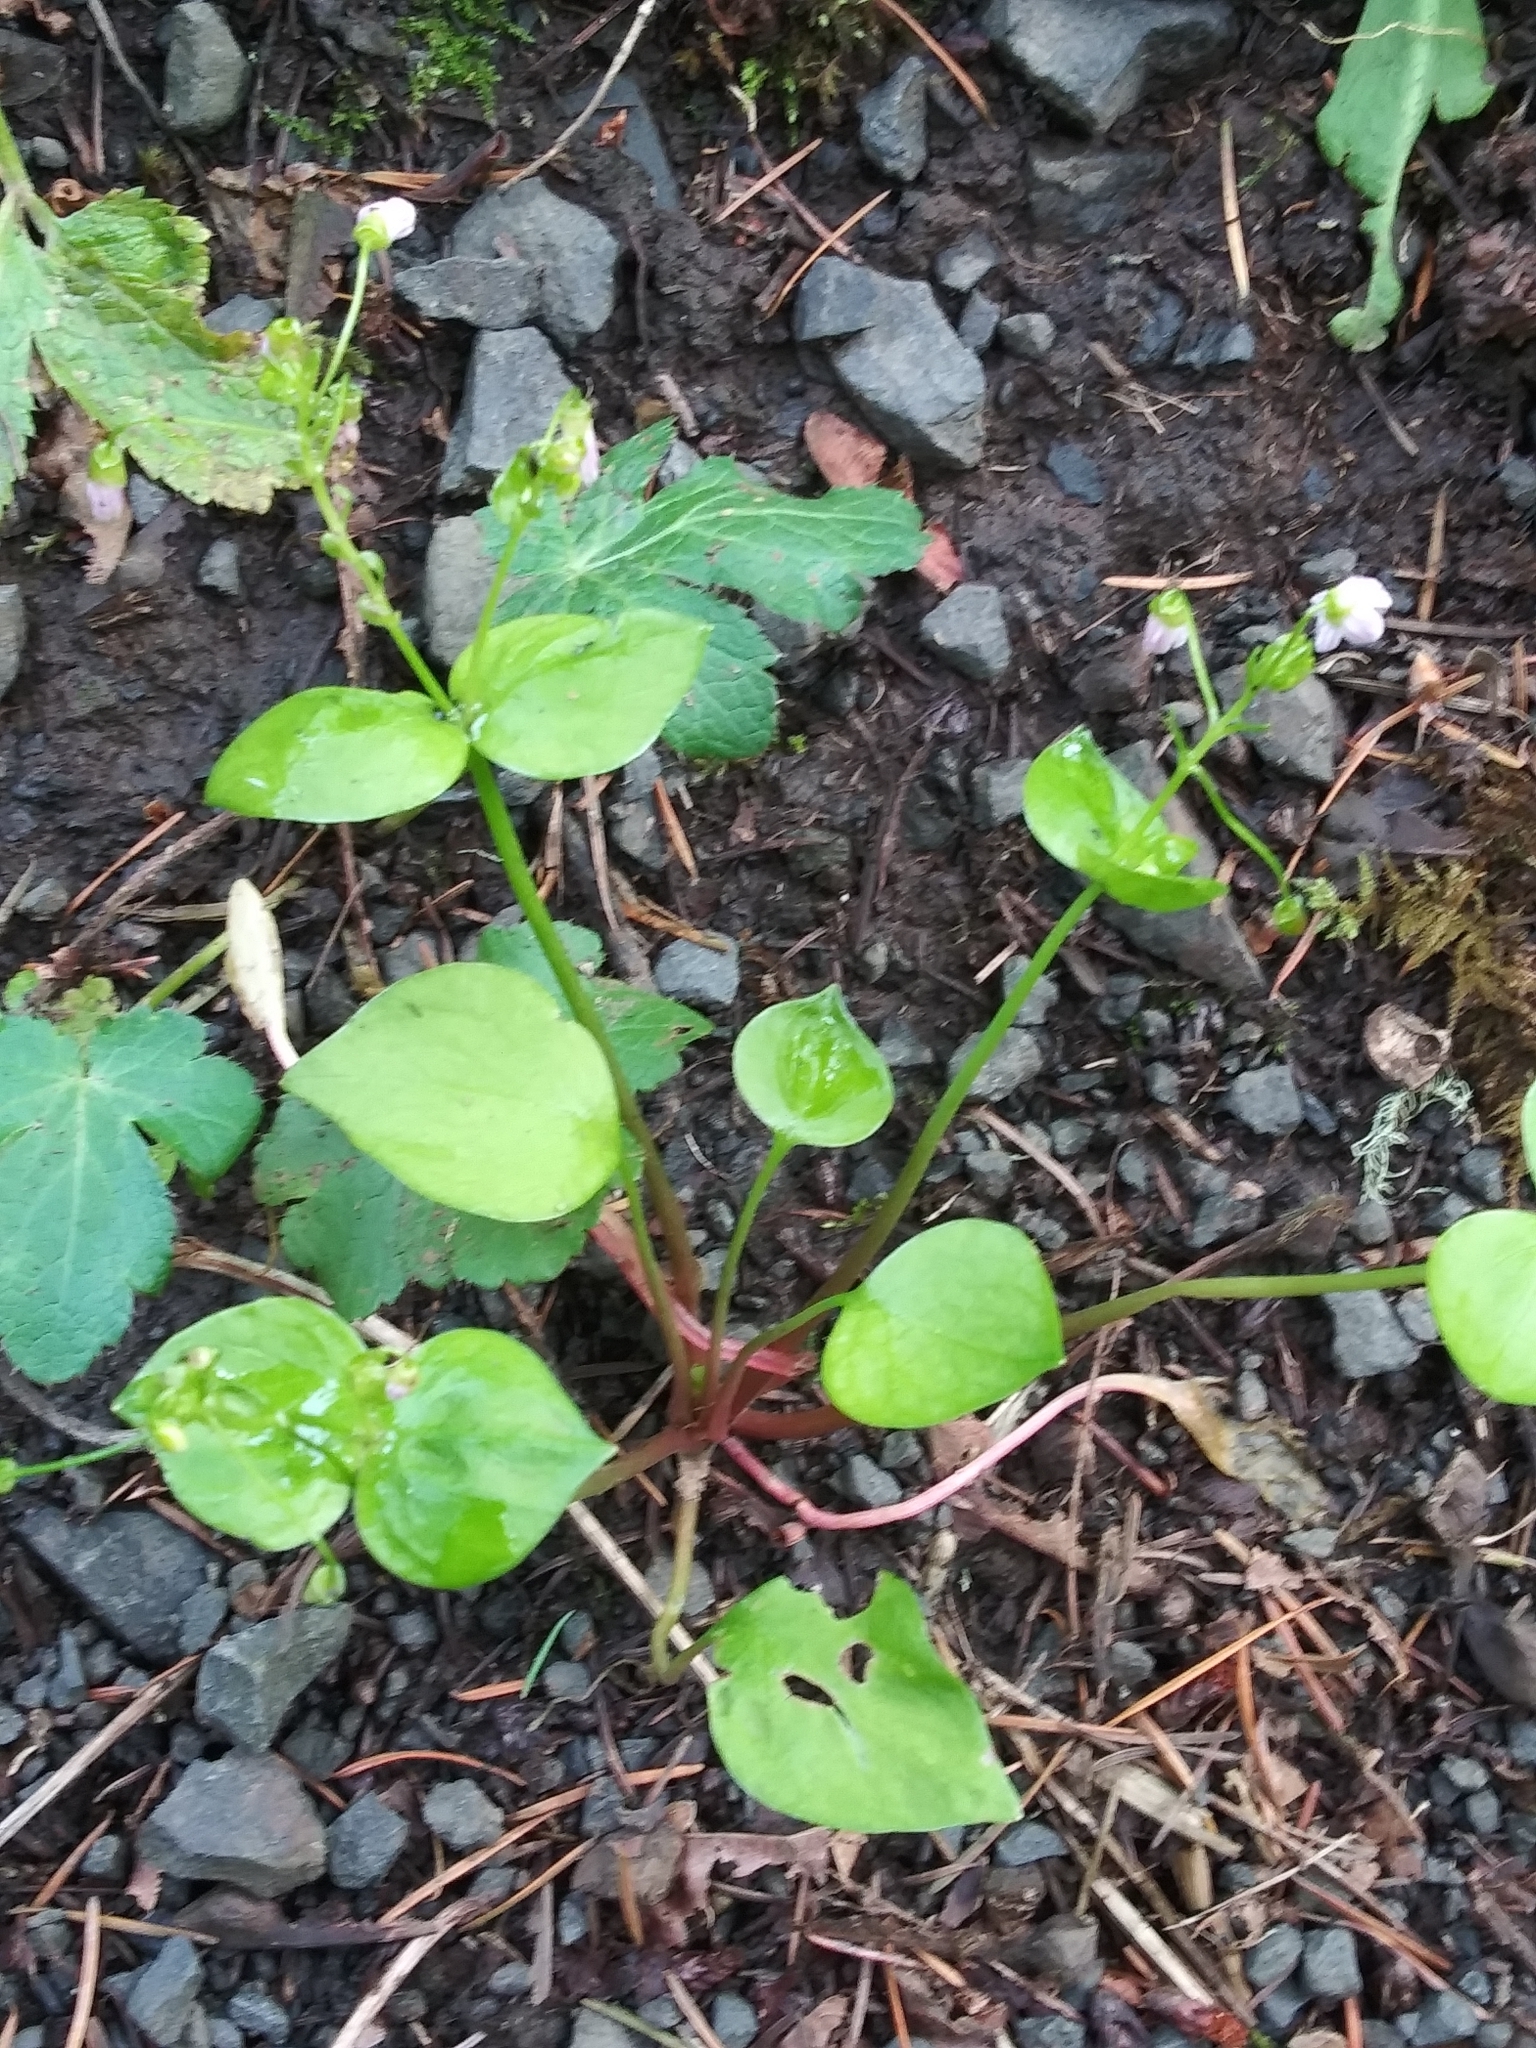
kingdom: Plantae
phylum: Tracheophyta
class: Magnoliopsida
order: Caryophyllales
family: Montiaceae
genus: Claytonia
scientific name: Claytonia sibirica
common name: Pink purslane
